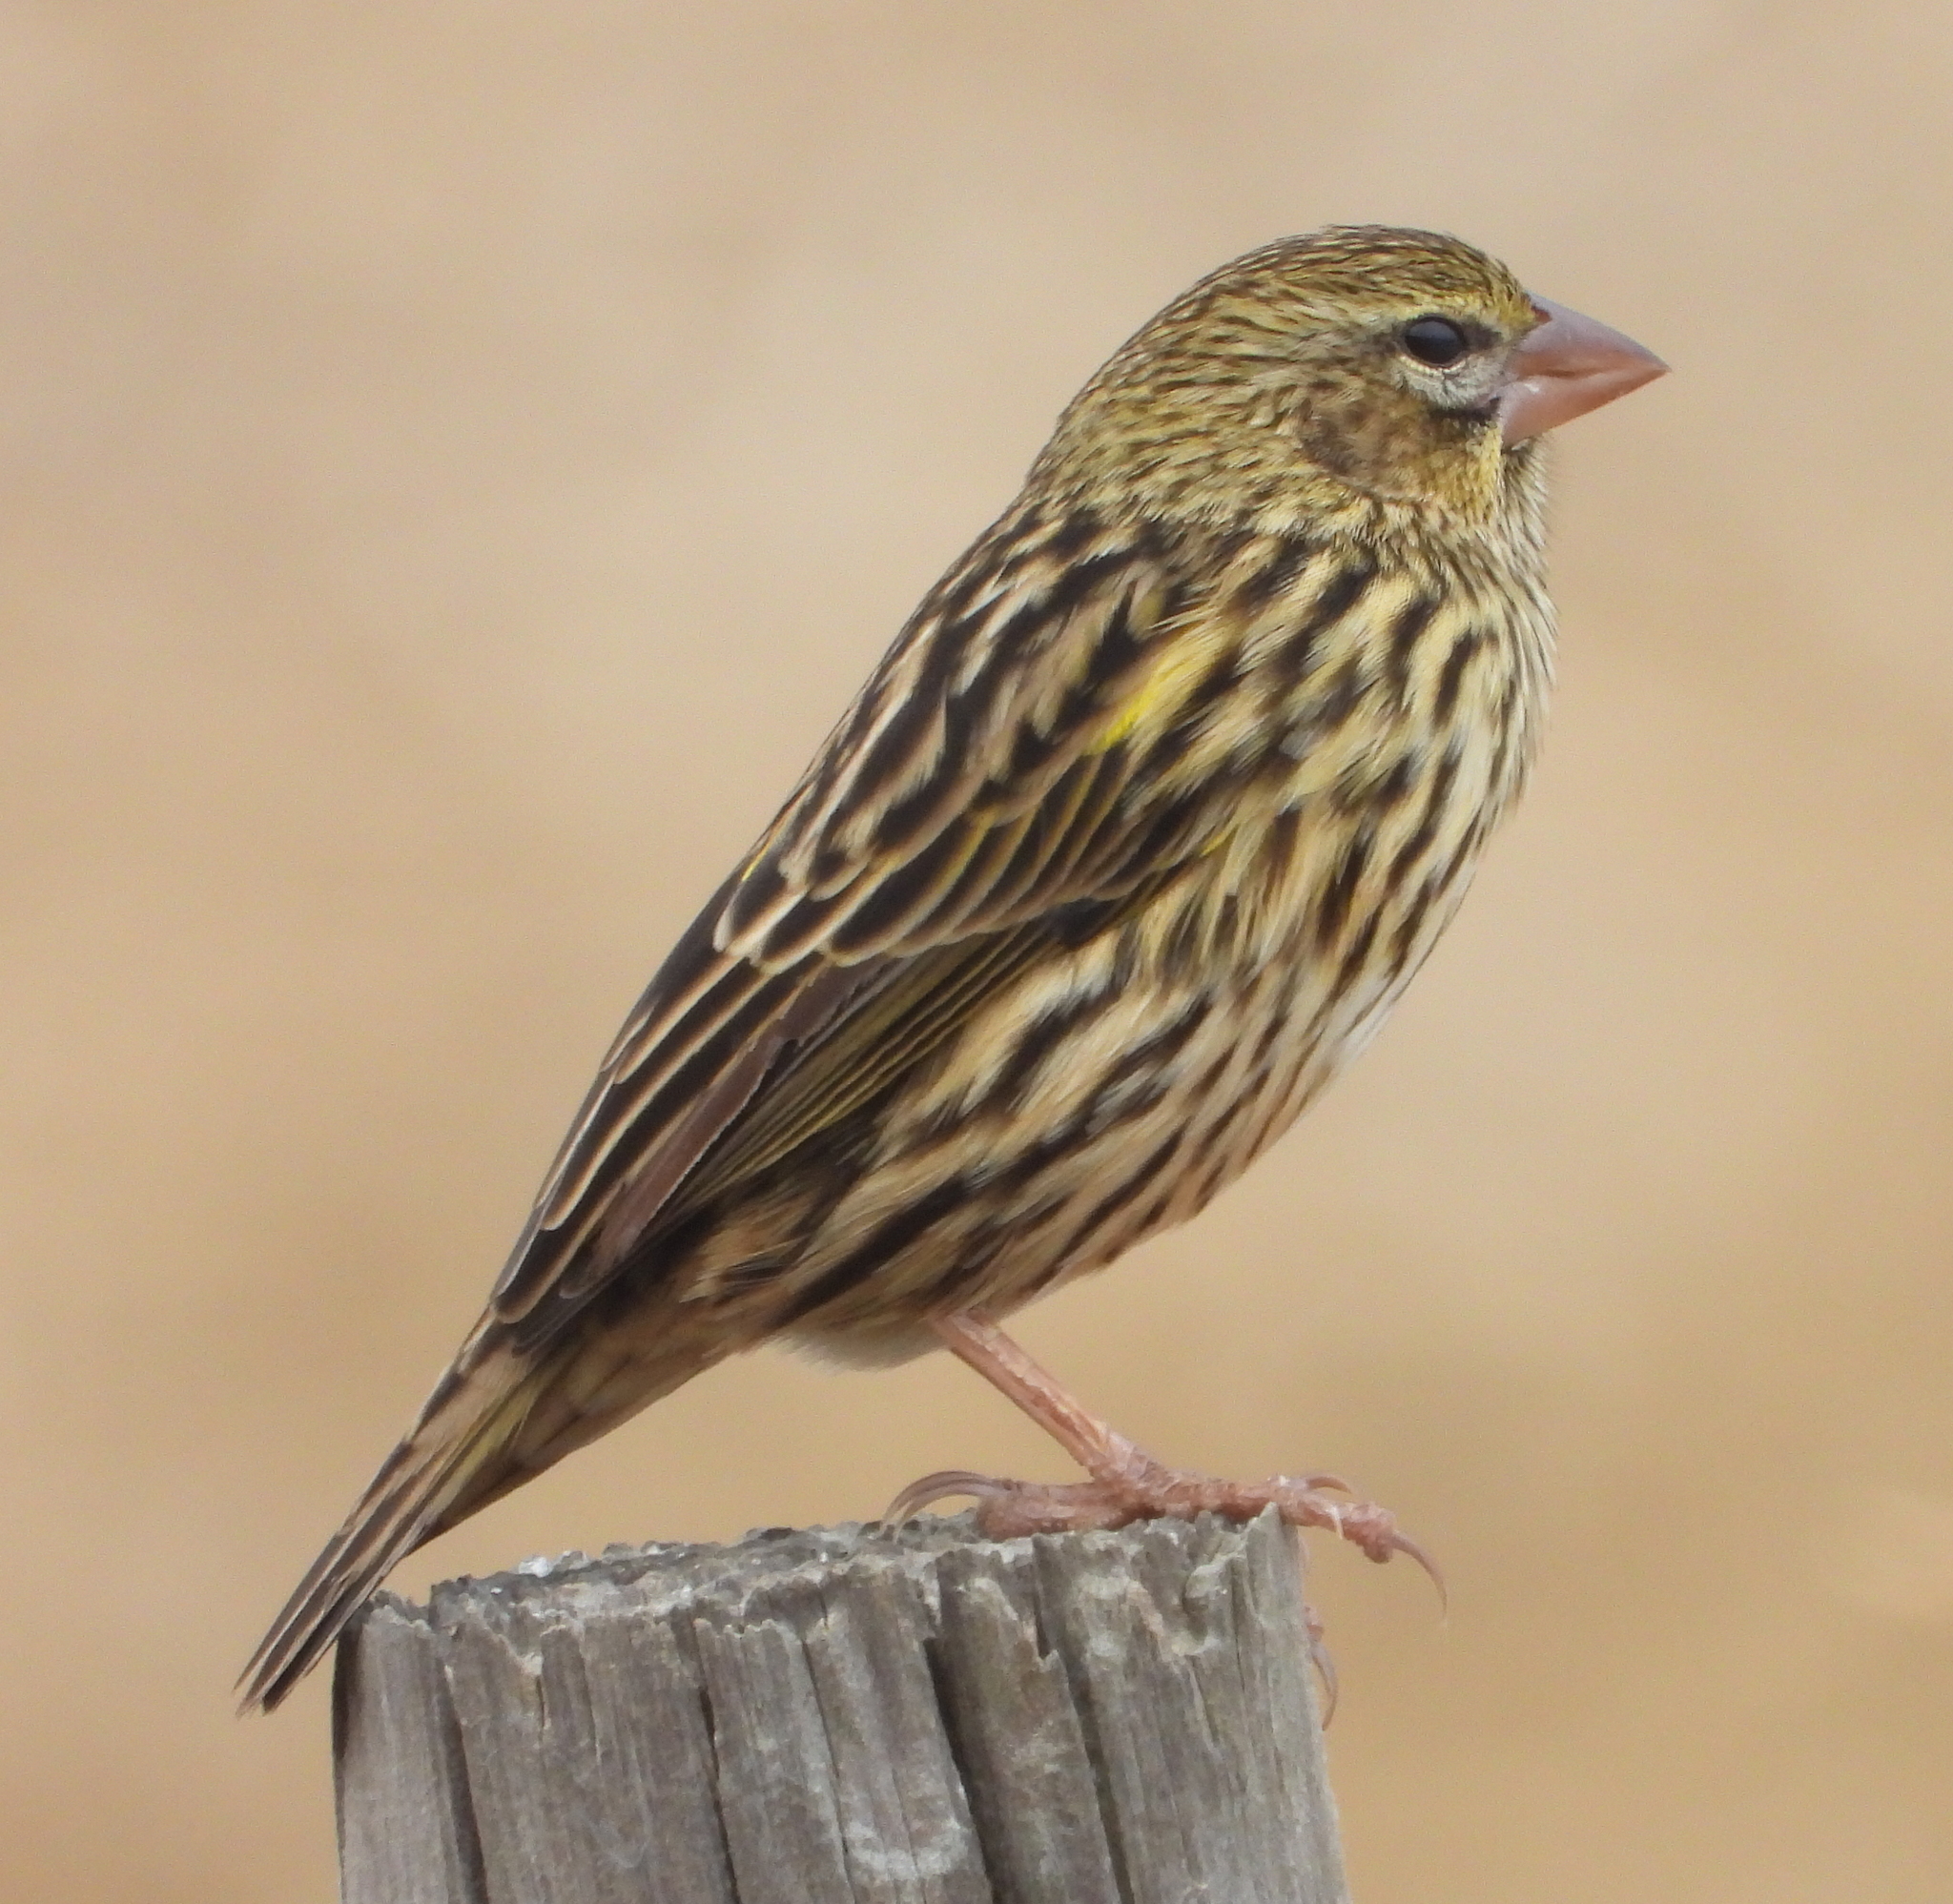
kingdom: Animalia
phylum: Chordata
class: Aves
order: Passeriformes
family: Ploceidae
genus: Euplectes
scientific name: Euplectes capensis
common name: Yellow bishop
